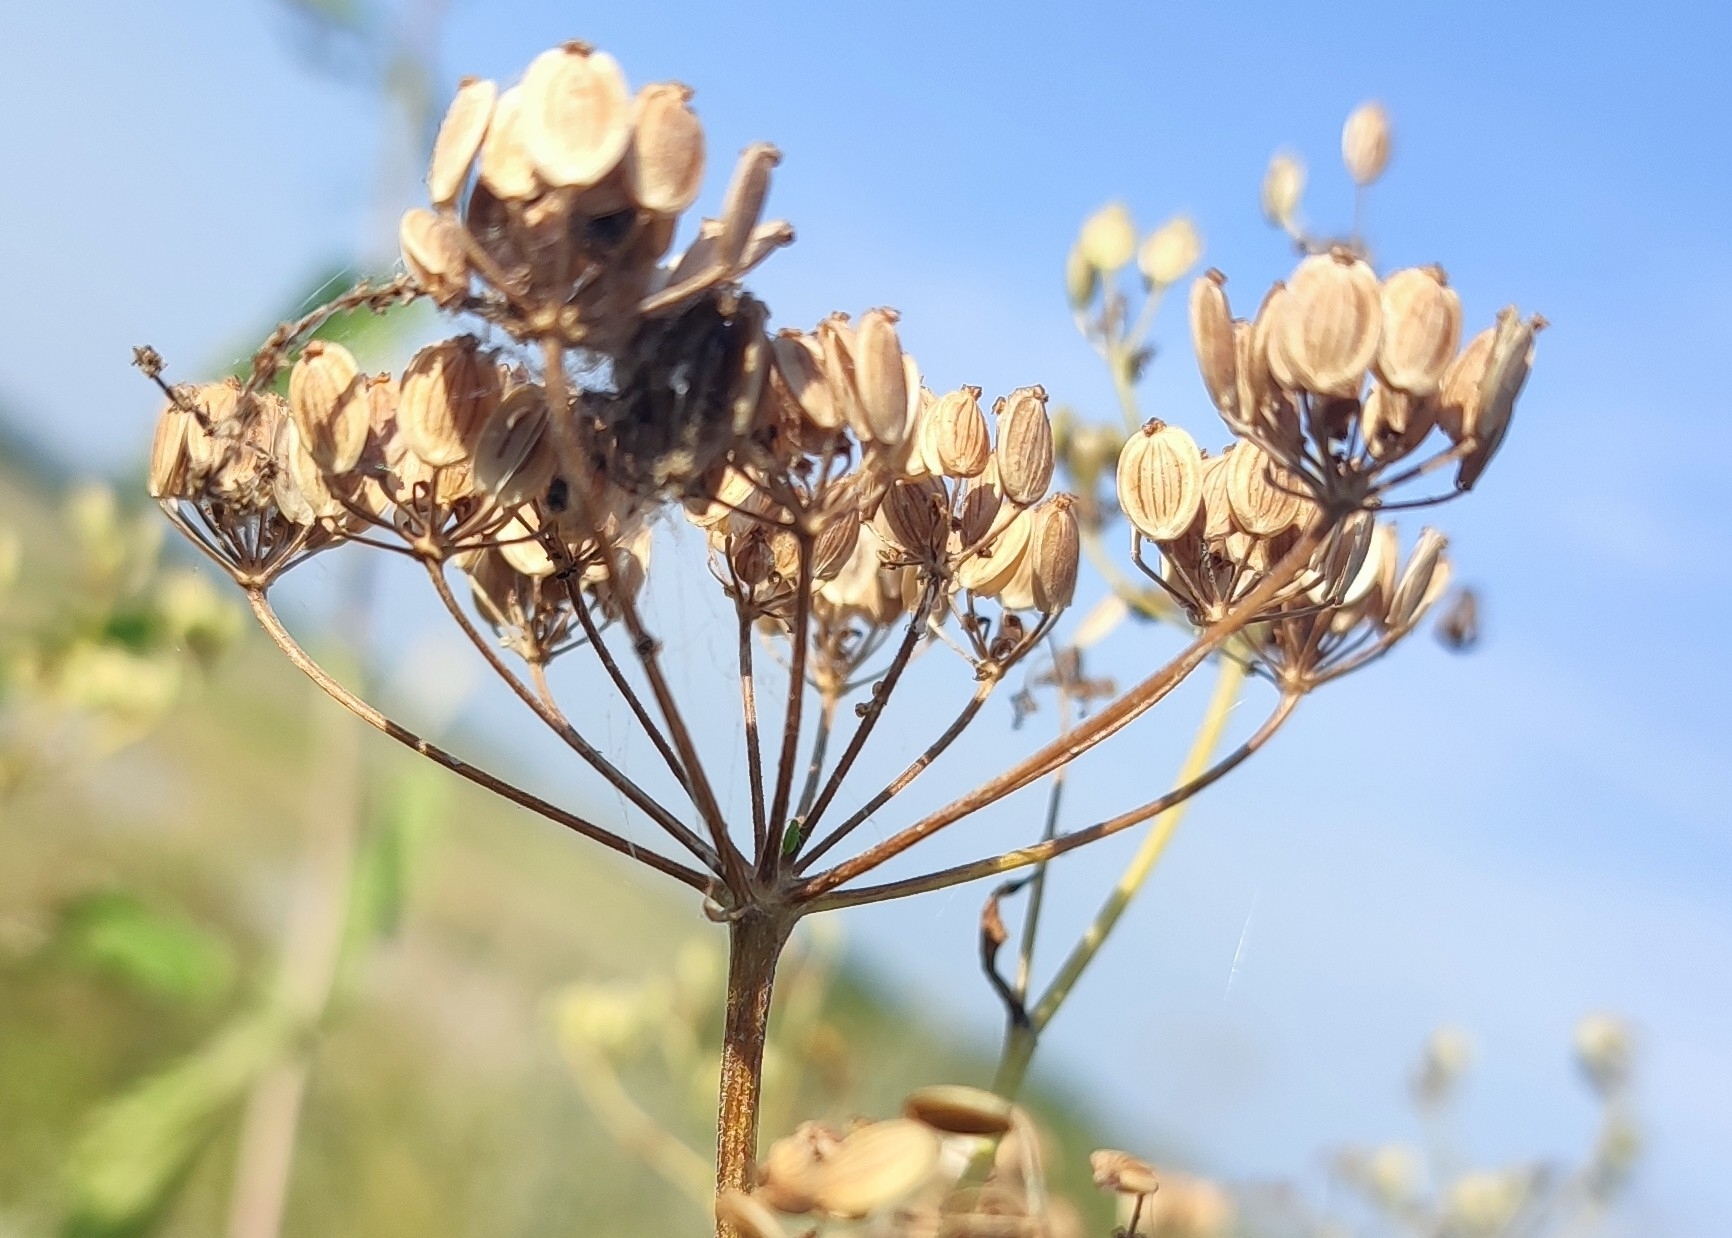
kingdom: Plantae
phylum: Tracheophyta
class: Magnoliopsida
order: Apiales
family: Apiaceae
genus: Pastinaca
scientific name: Pastinaca sativa
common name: Wild parsnip
